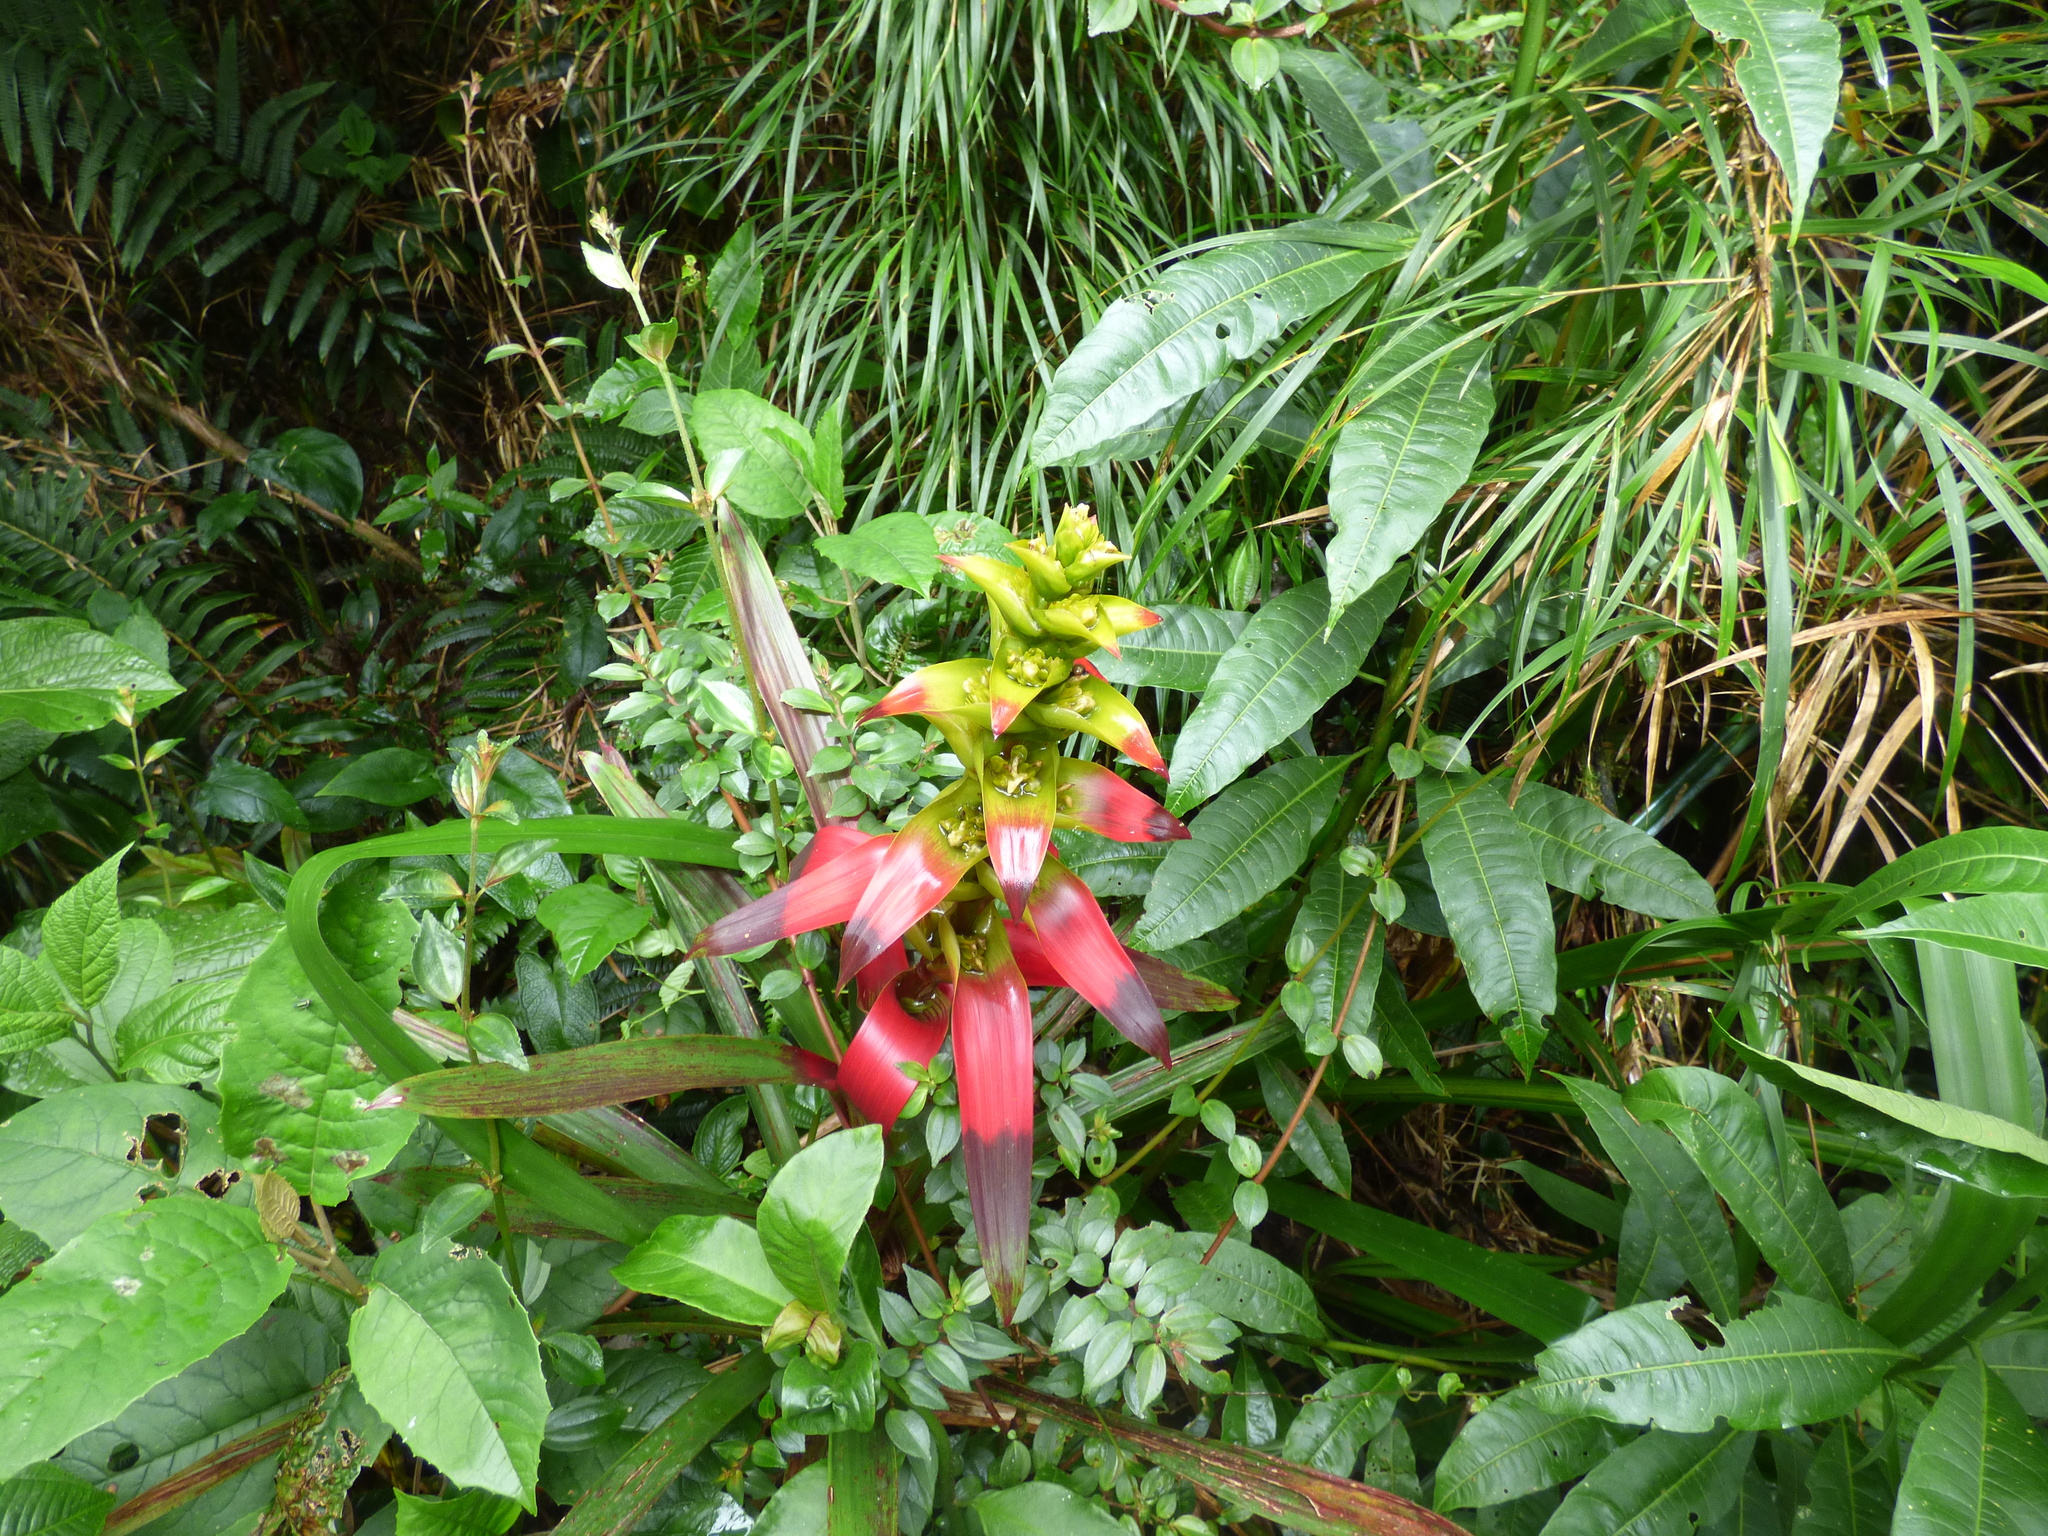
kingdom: Plantae
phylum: Tracheophyta
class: Liliopsida
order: Poales
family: Bromeliaceae
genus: Guzmania
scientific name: Guzmania squarrosa
